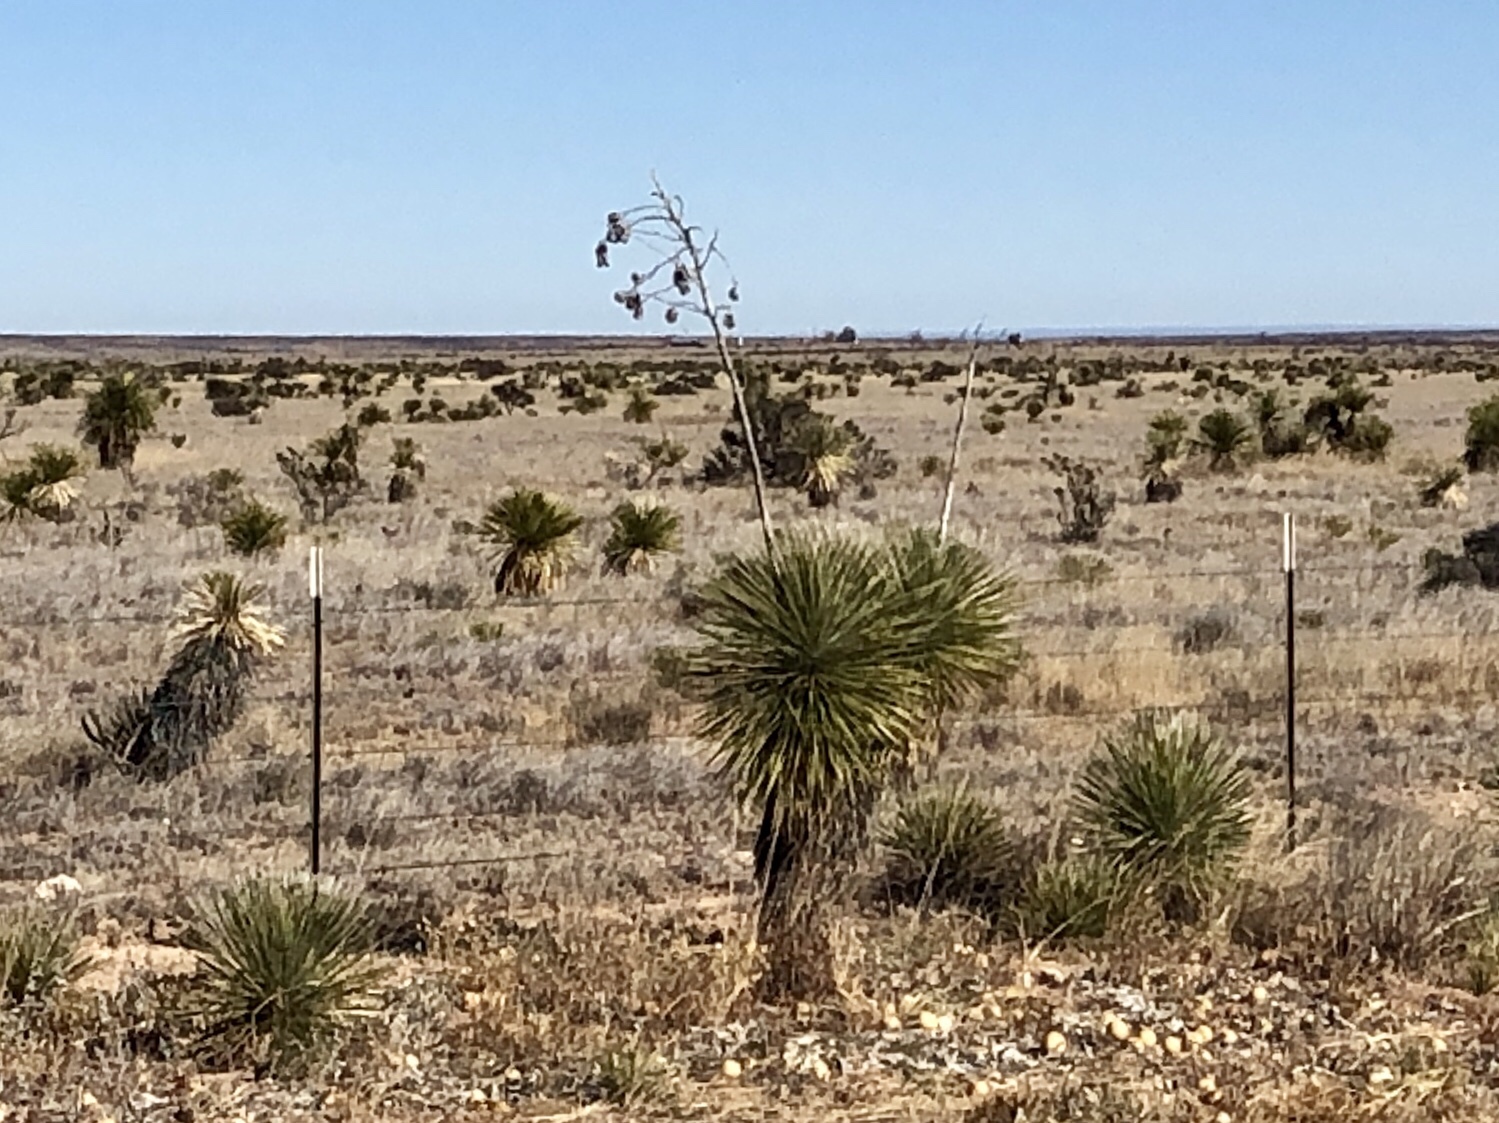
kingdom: Plantae
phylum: Tracheophyta
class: Liliopsida
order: Asparagales
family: Asparagaceae
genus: Yucca
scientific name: Yucca elata
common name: Palmella
